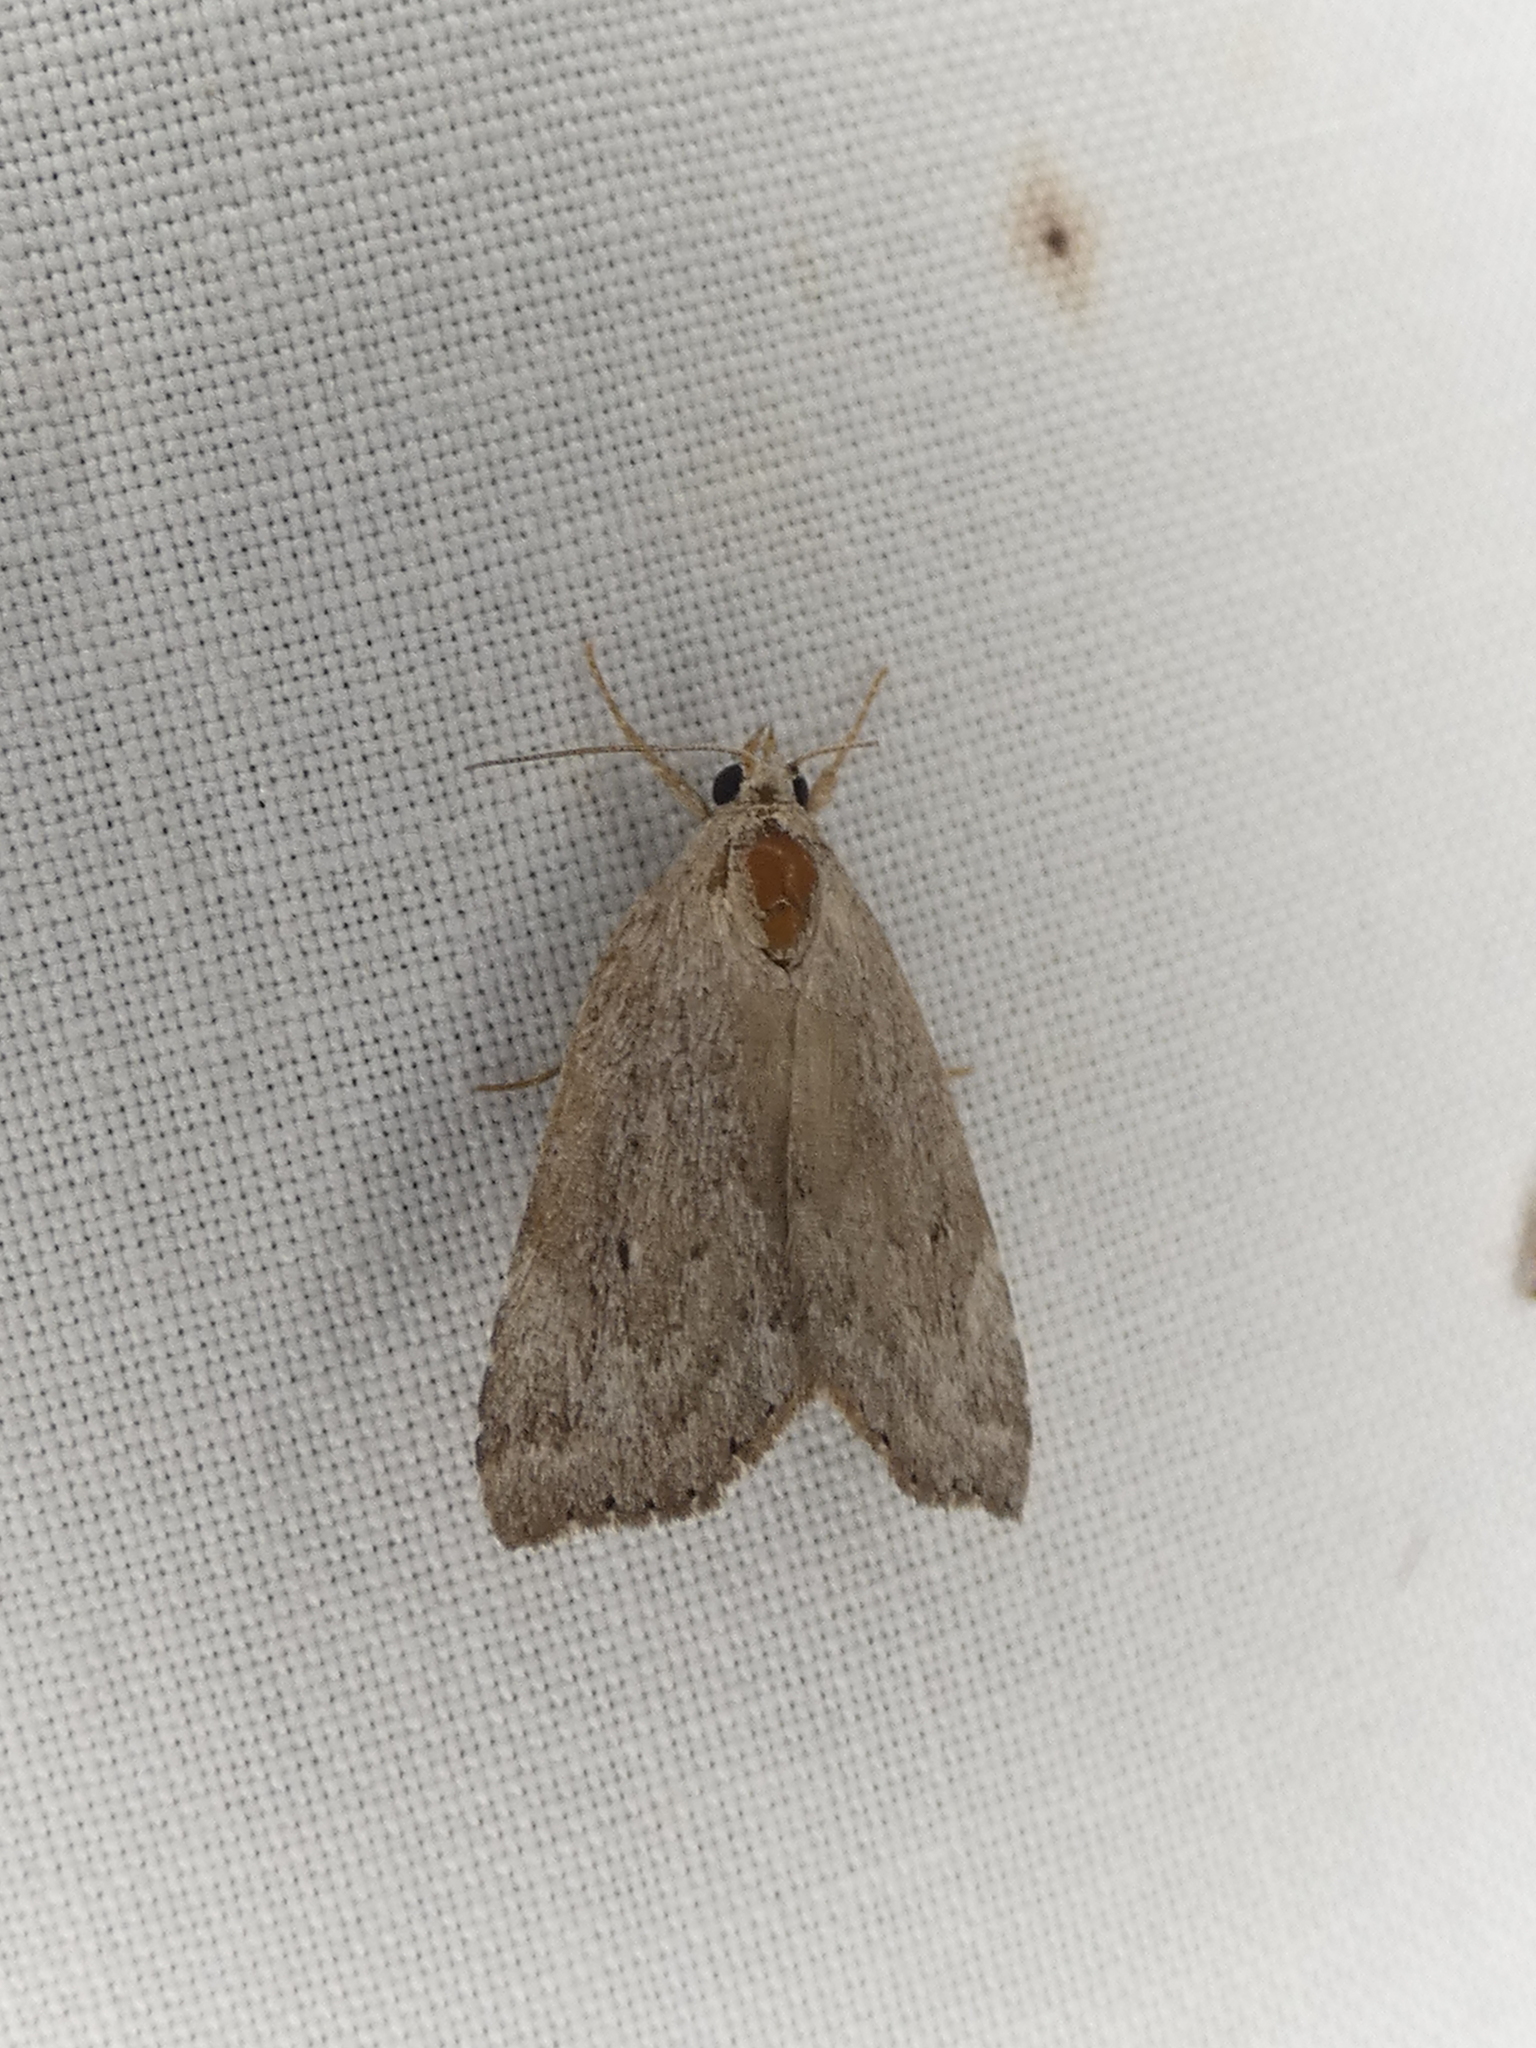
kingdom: Animalia
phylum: Arthropoda
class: Insecta
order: Lepidoptera
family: Erebidae
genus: Cutina
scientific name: Cutina albopunctella
